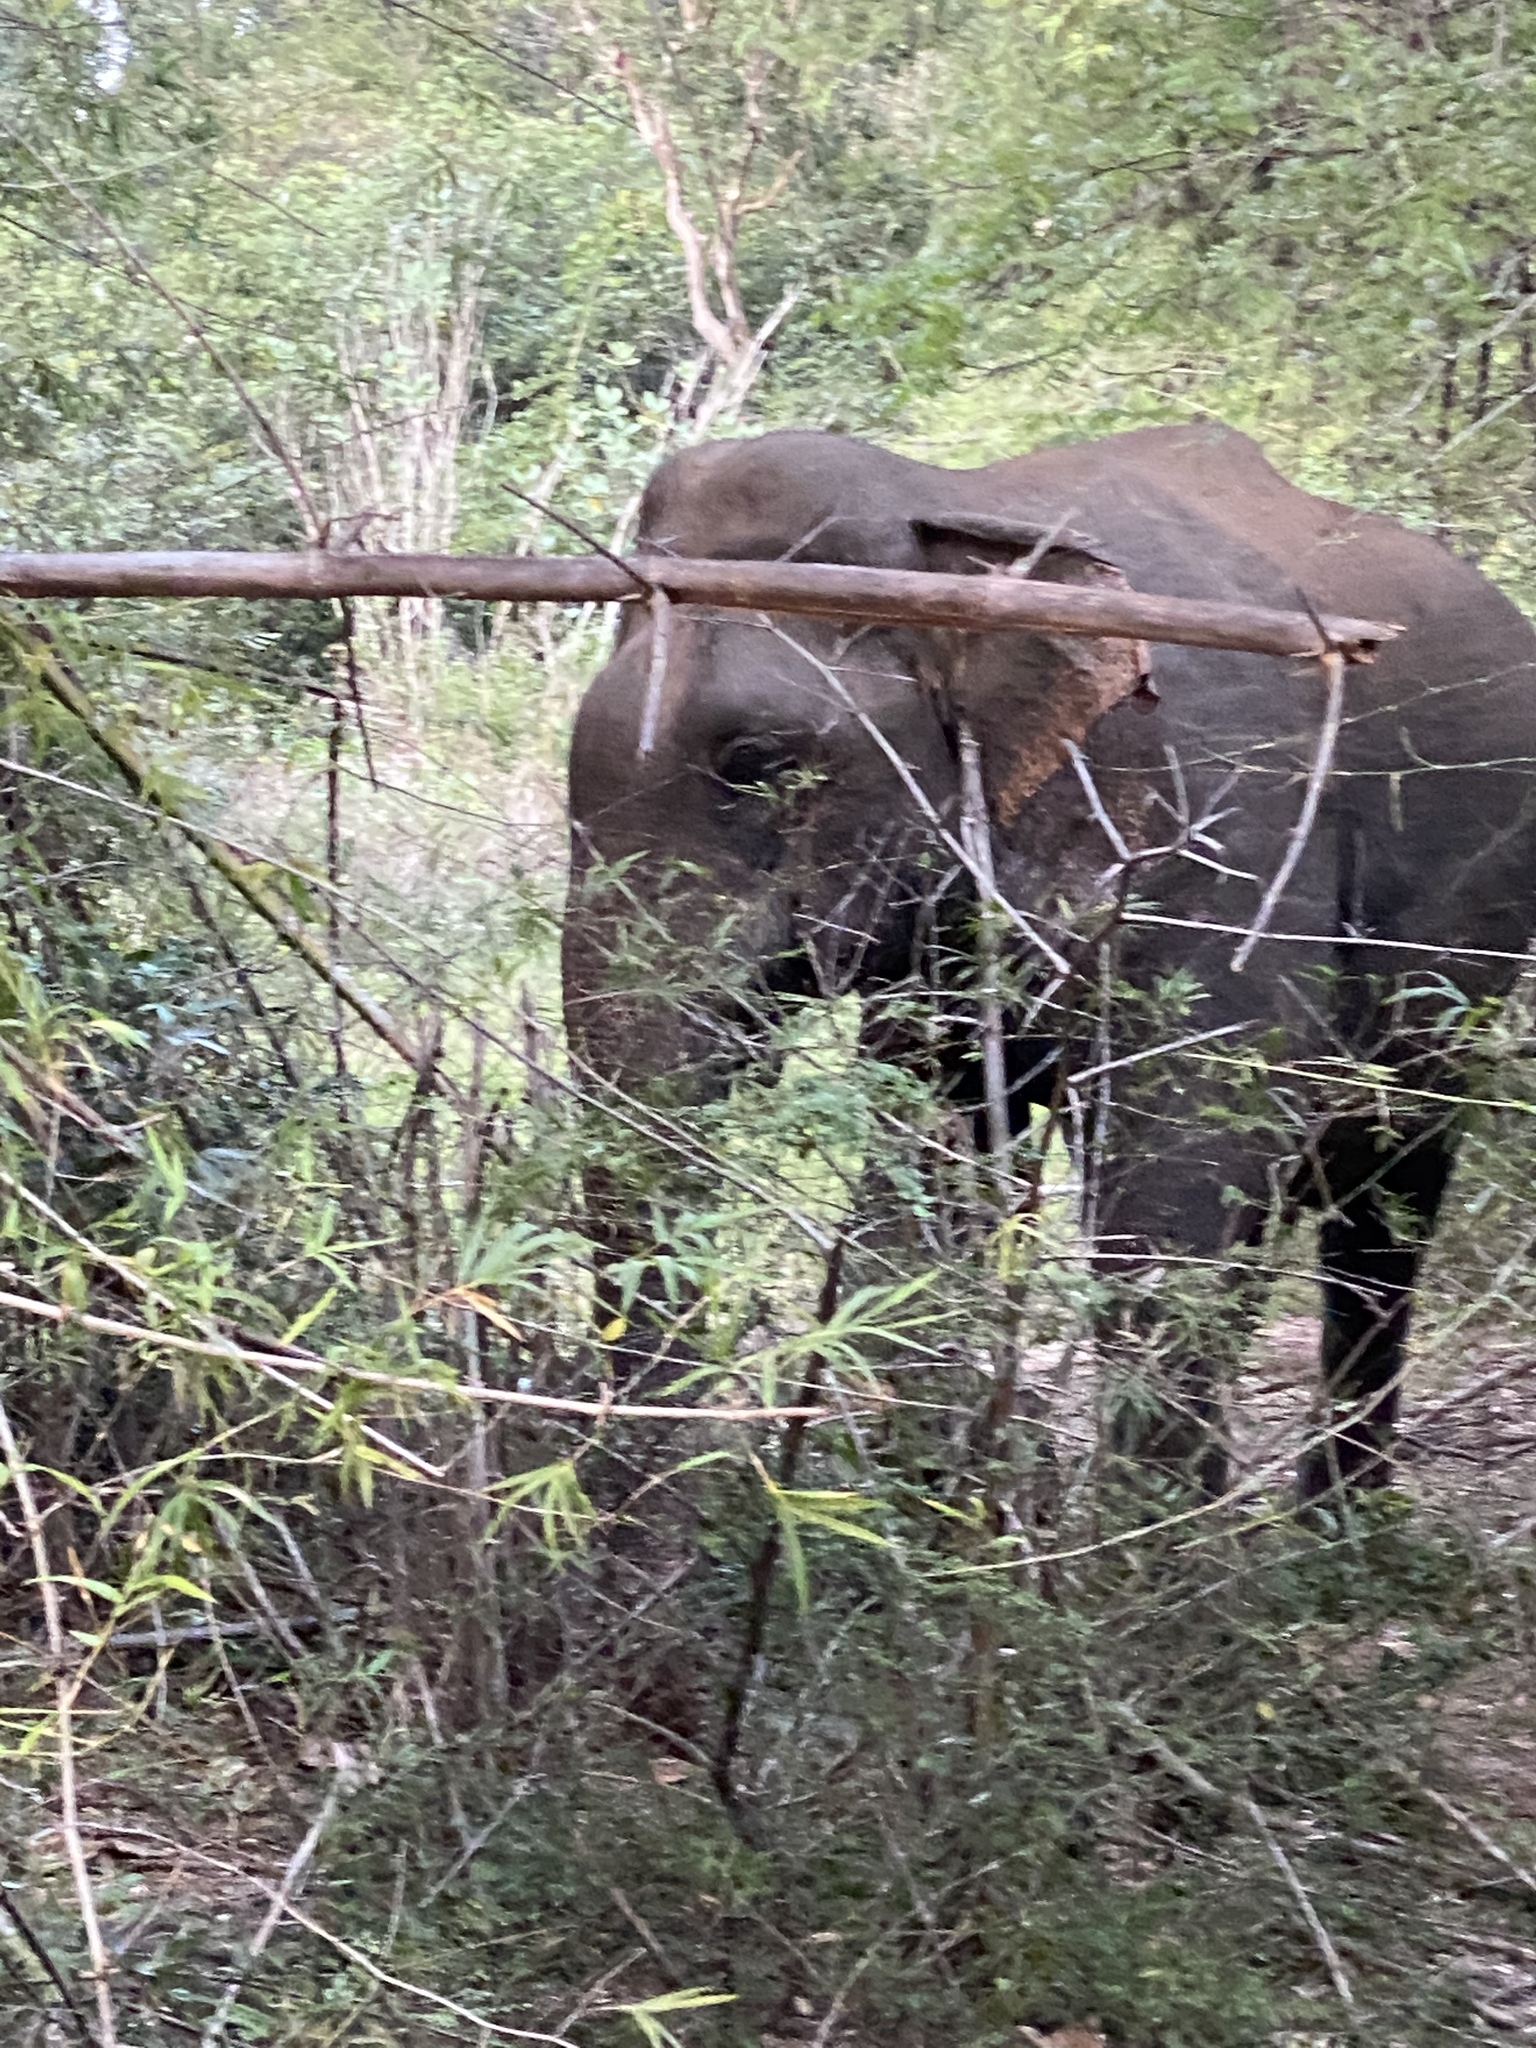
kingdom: Animalia
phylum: Chordata
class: Mammalia
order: Proboscidea
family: Elephantidae
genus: Elephas
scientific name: Elephas maximus
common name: Asian elephant
